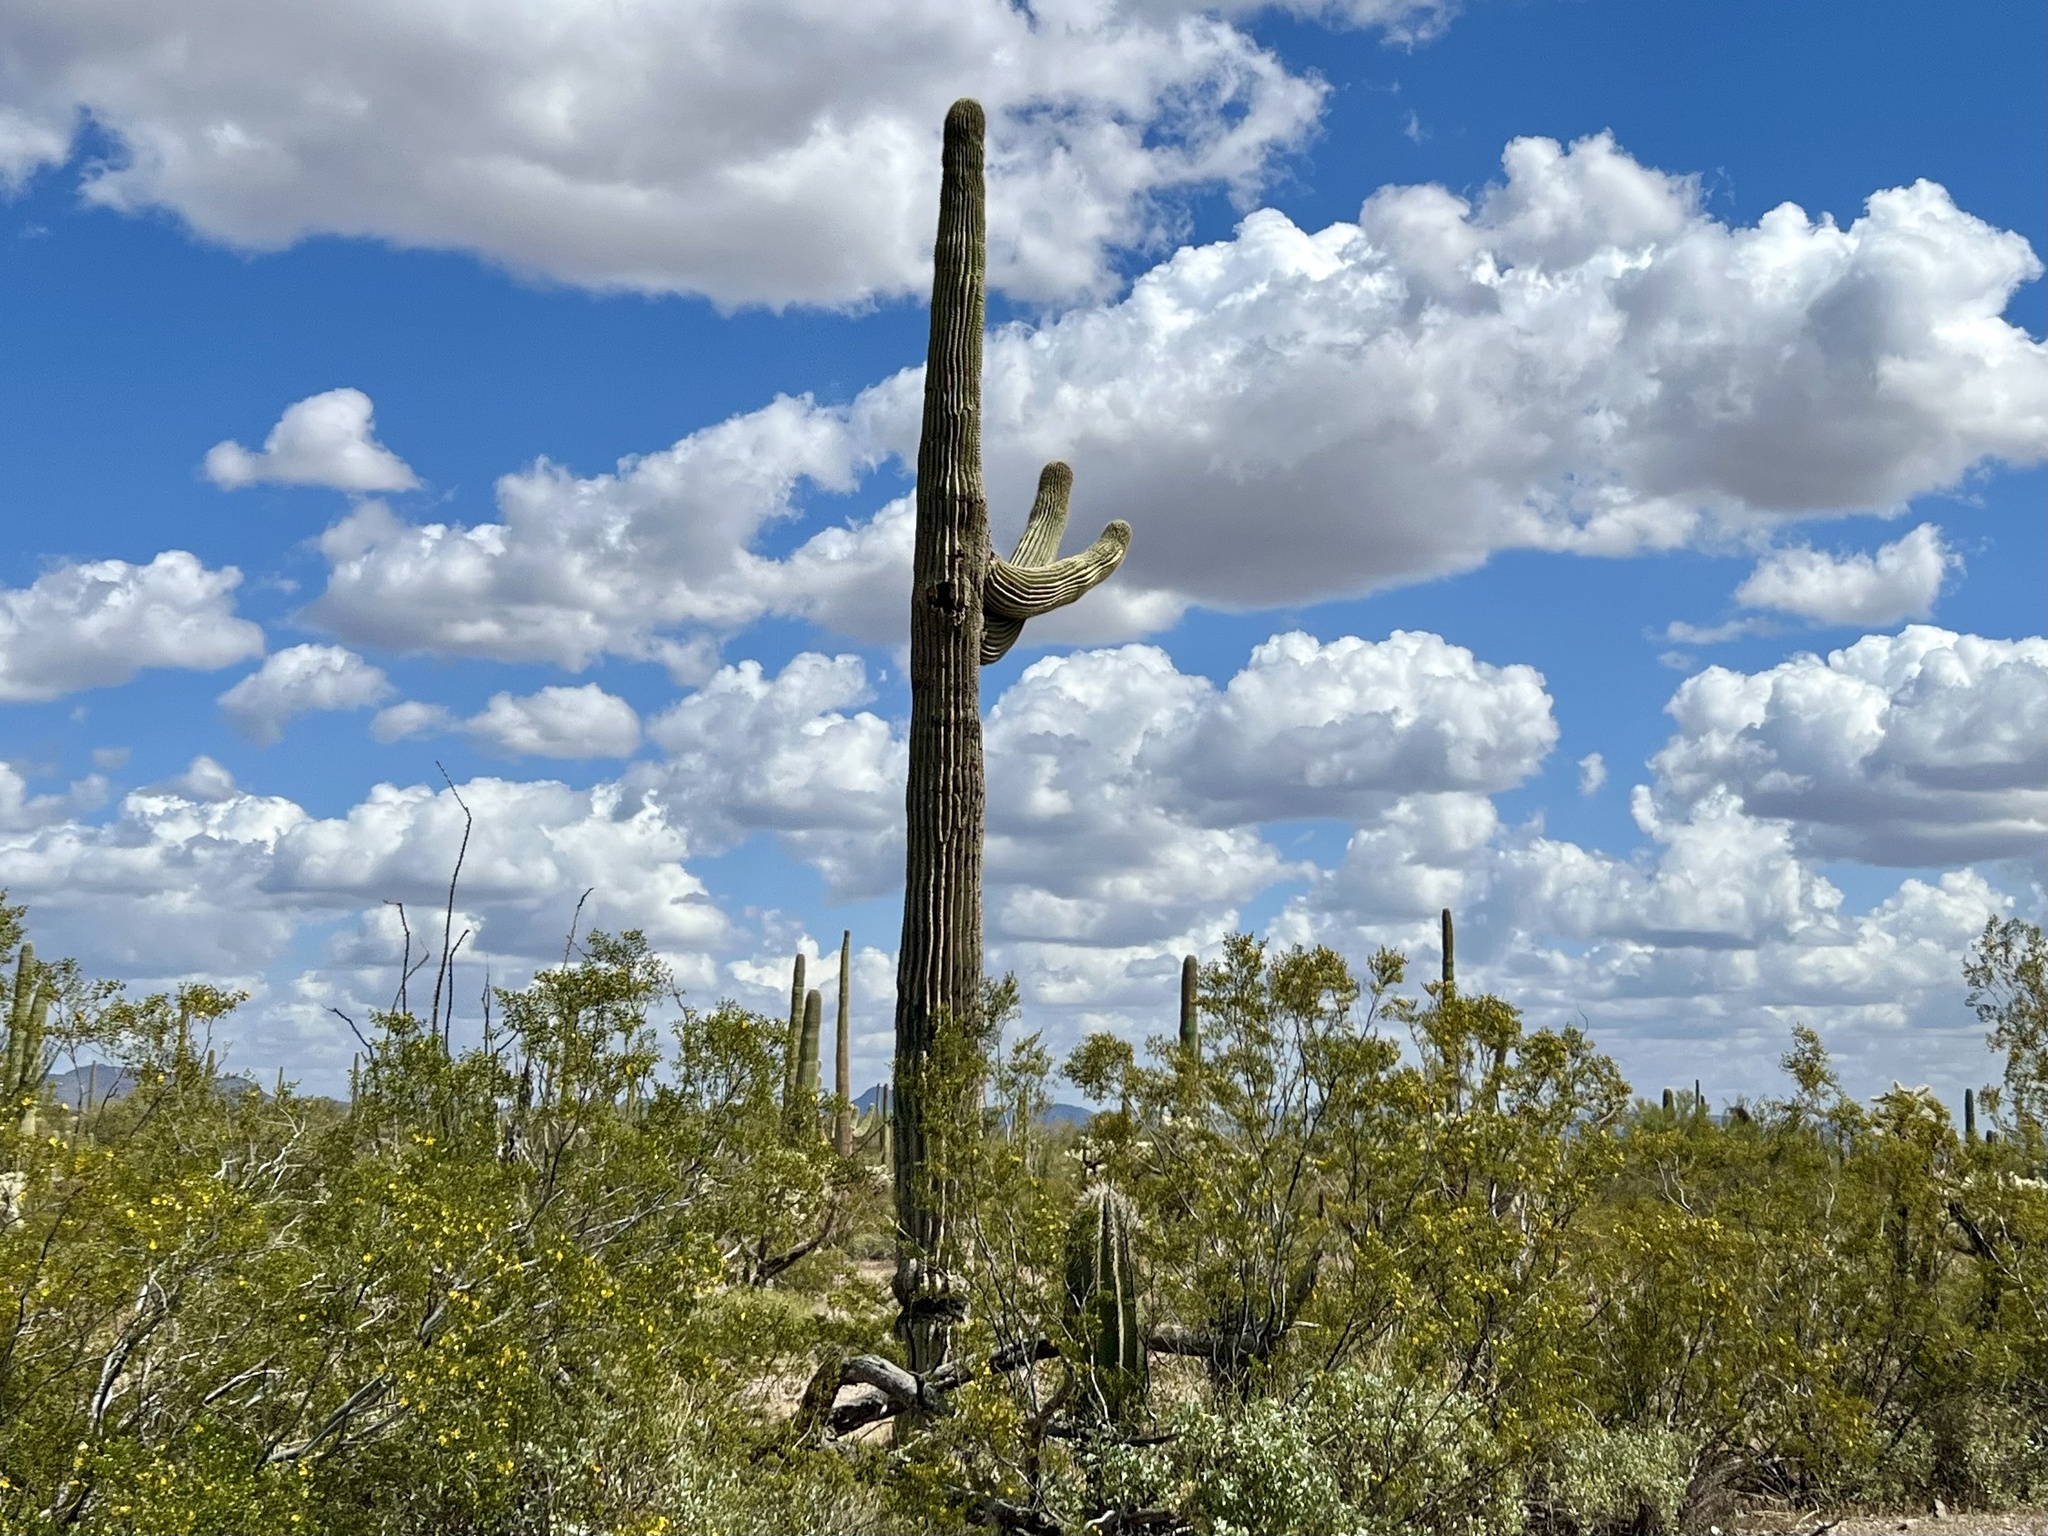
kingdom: Plantae
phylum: Tracheophyta
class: Magnoliopsida
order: Caryophyllales
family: Cactaceae
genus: Carnegiea
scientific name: Carnegiea gigantea
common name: Saguaro
